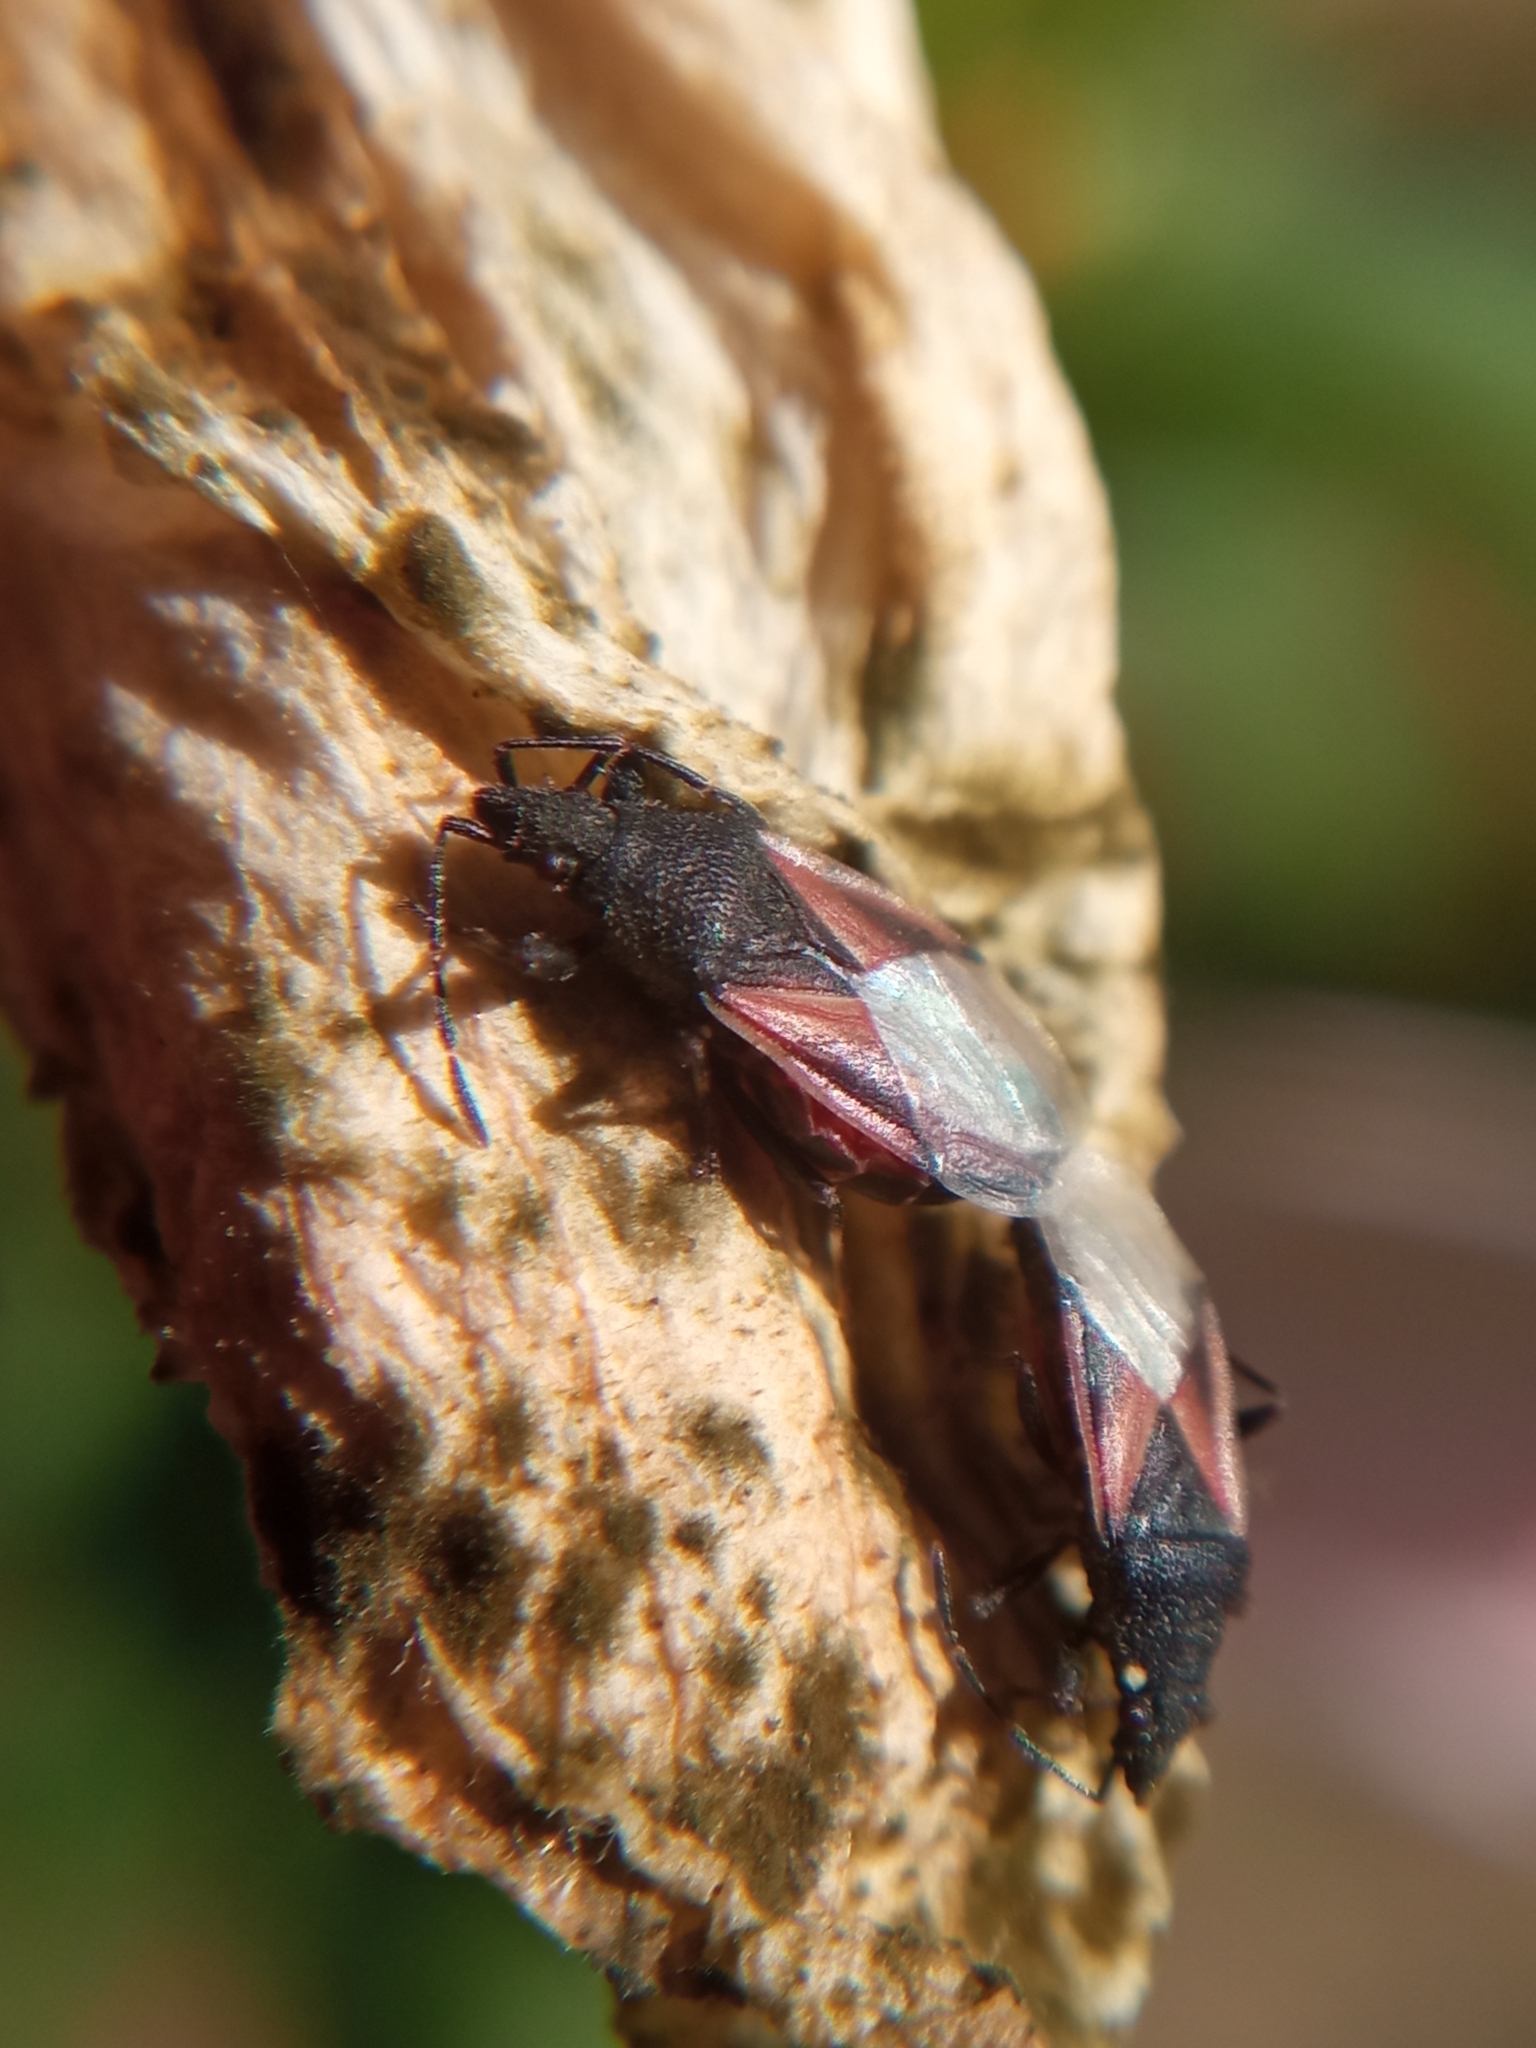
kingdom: Animalia
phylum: Arthropoda
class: Insecta
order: Hemiptera
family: Oxycarenidae
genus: Oxycarenus
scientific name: Oxycarenus lavaterae
